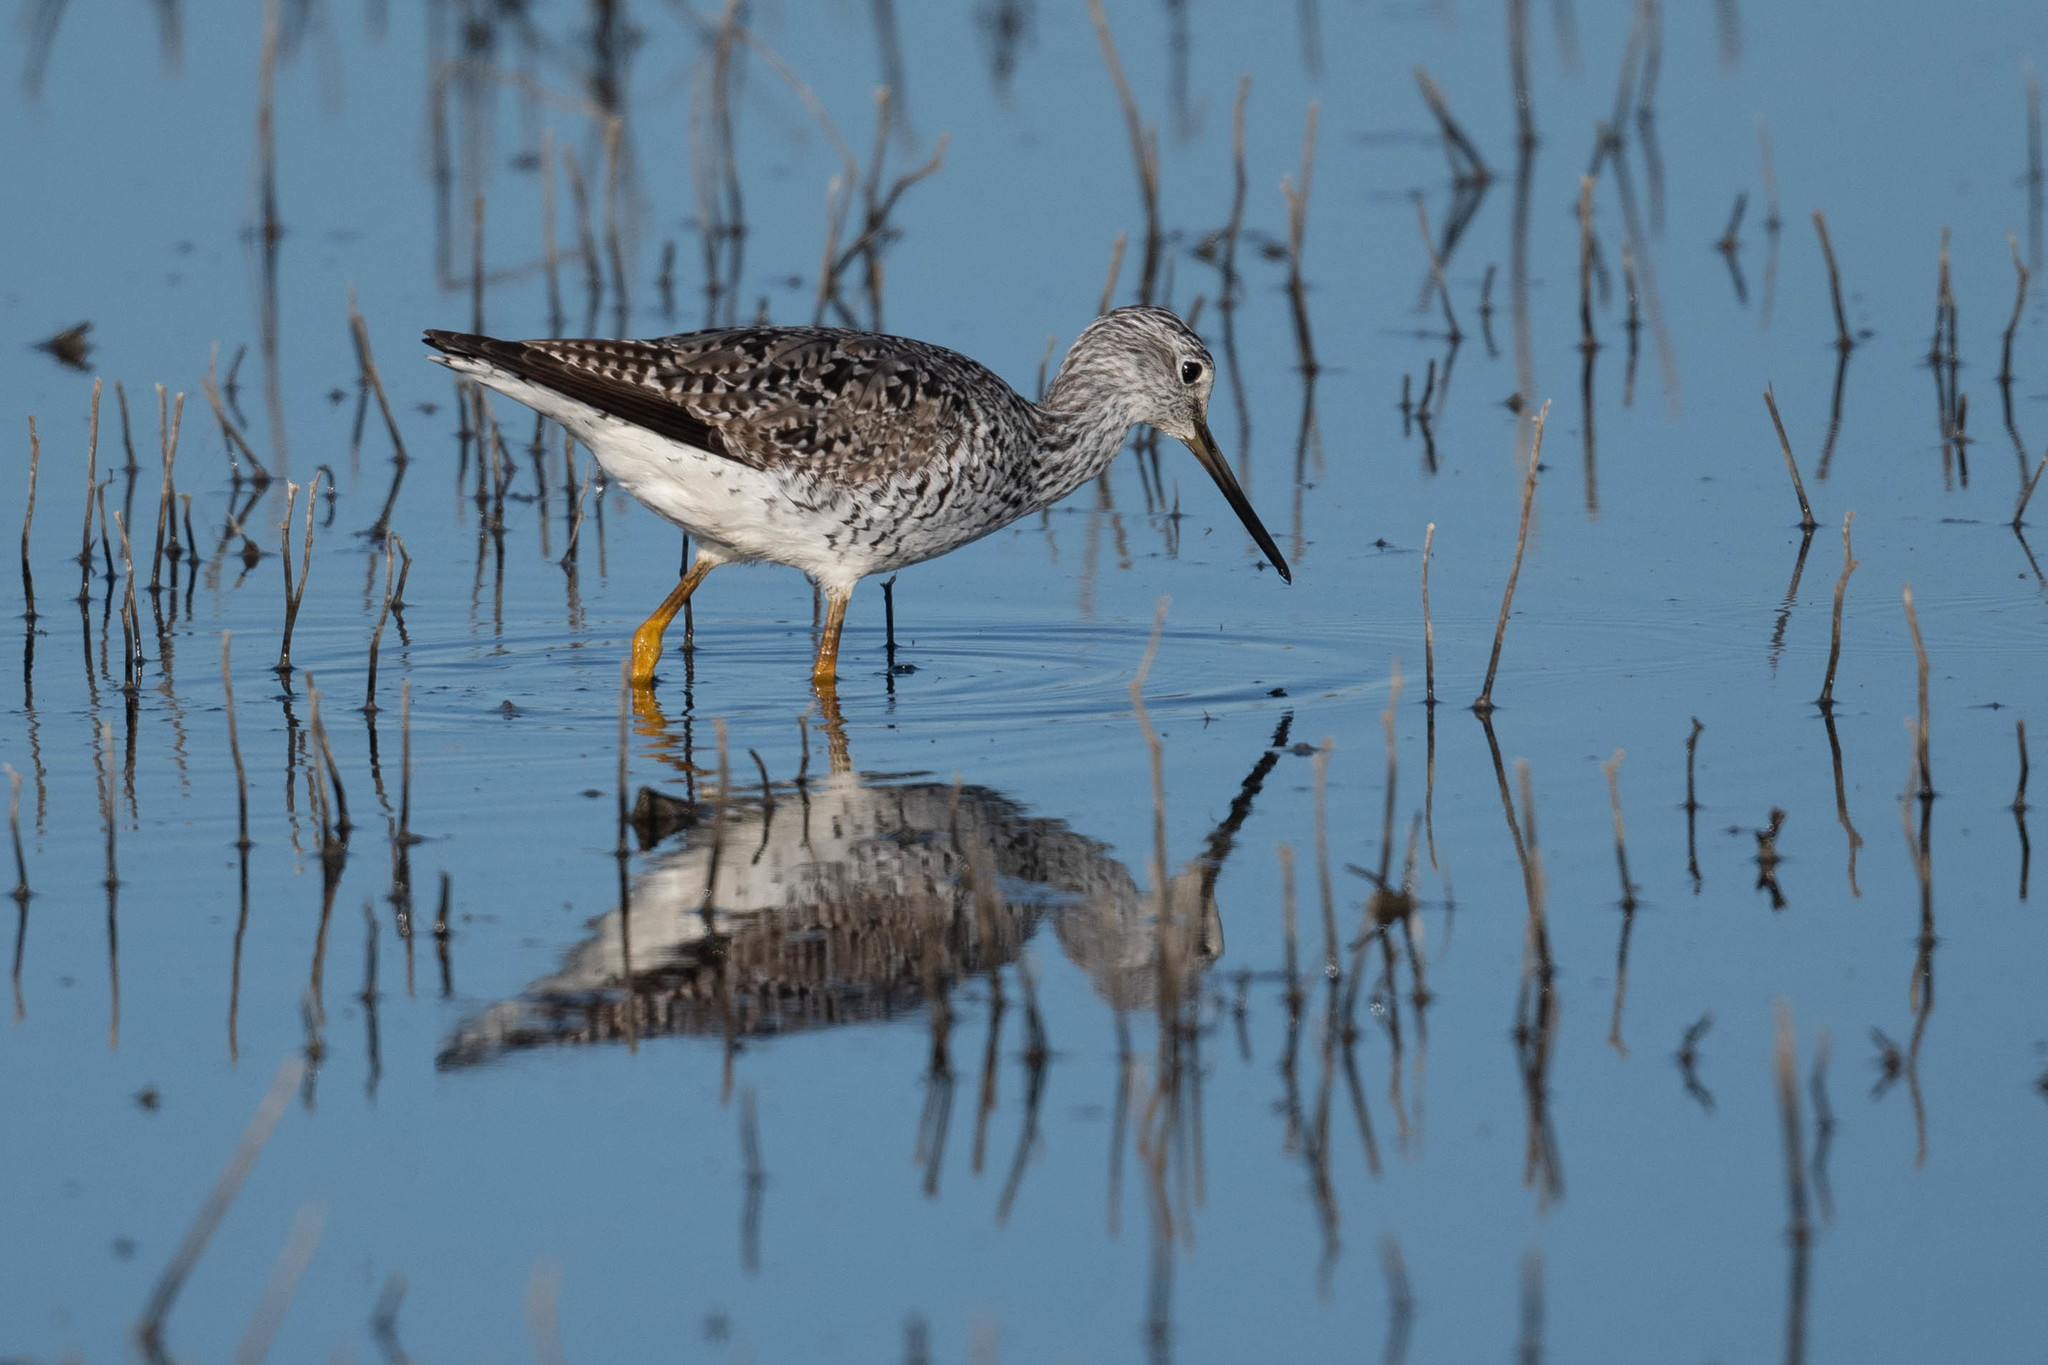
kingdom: Animalia
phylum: Chordata
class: Aves
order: Charadriiformes
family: Scolopacidae
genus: Tringa
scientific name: Tringa melanoleuca
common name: Greater yellowlegs
